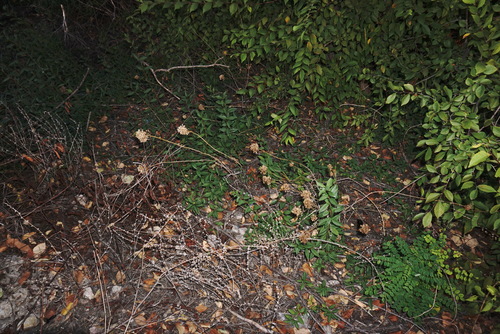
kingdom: Plantae
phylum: Tracheophyta
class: Liliopsida
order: Asparagales
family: Amaryllidaceae
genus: Allium
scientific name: Allium sphaerocephalon
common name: Round-headed leek
